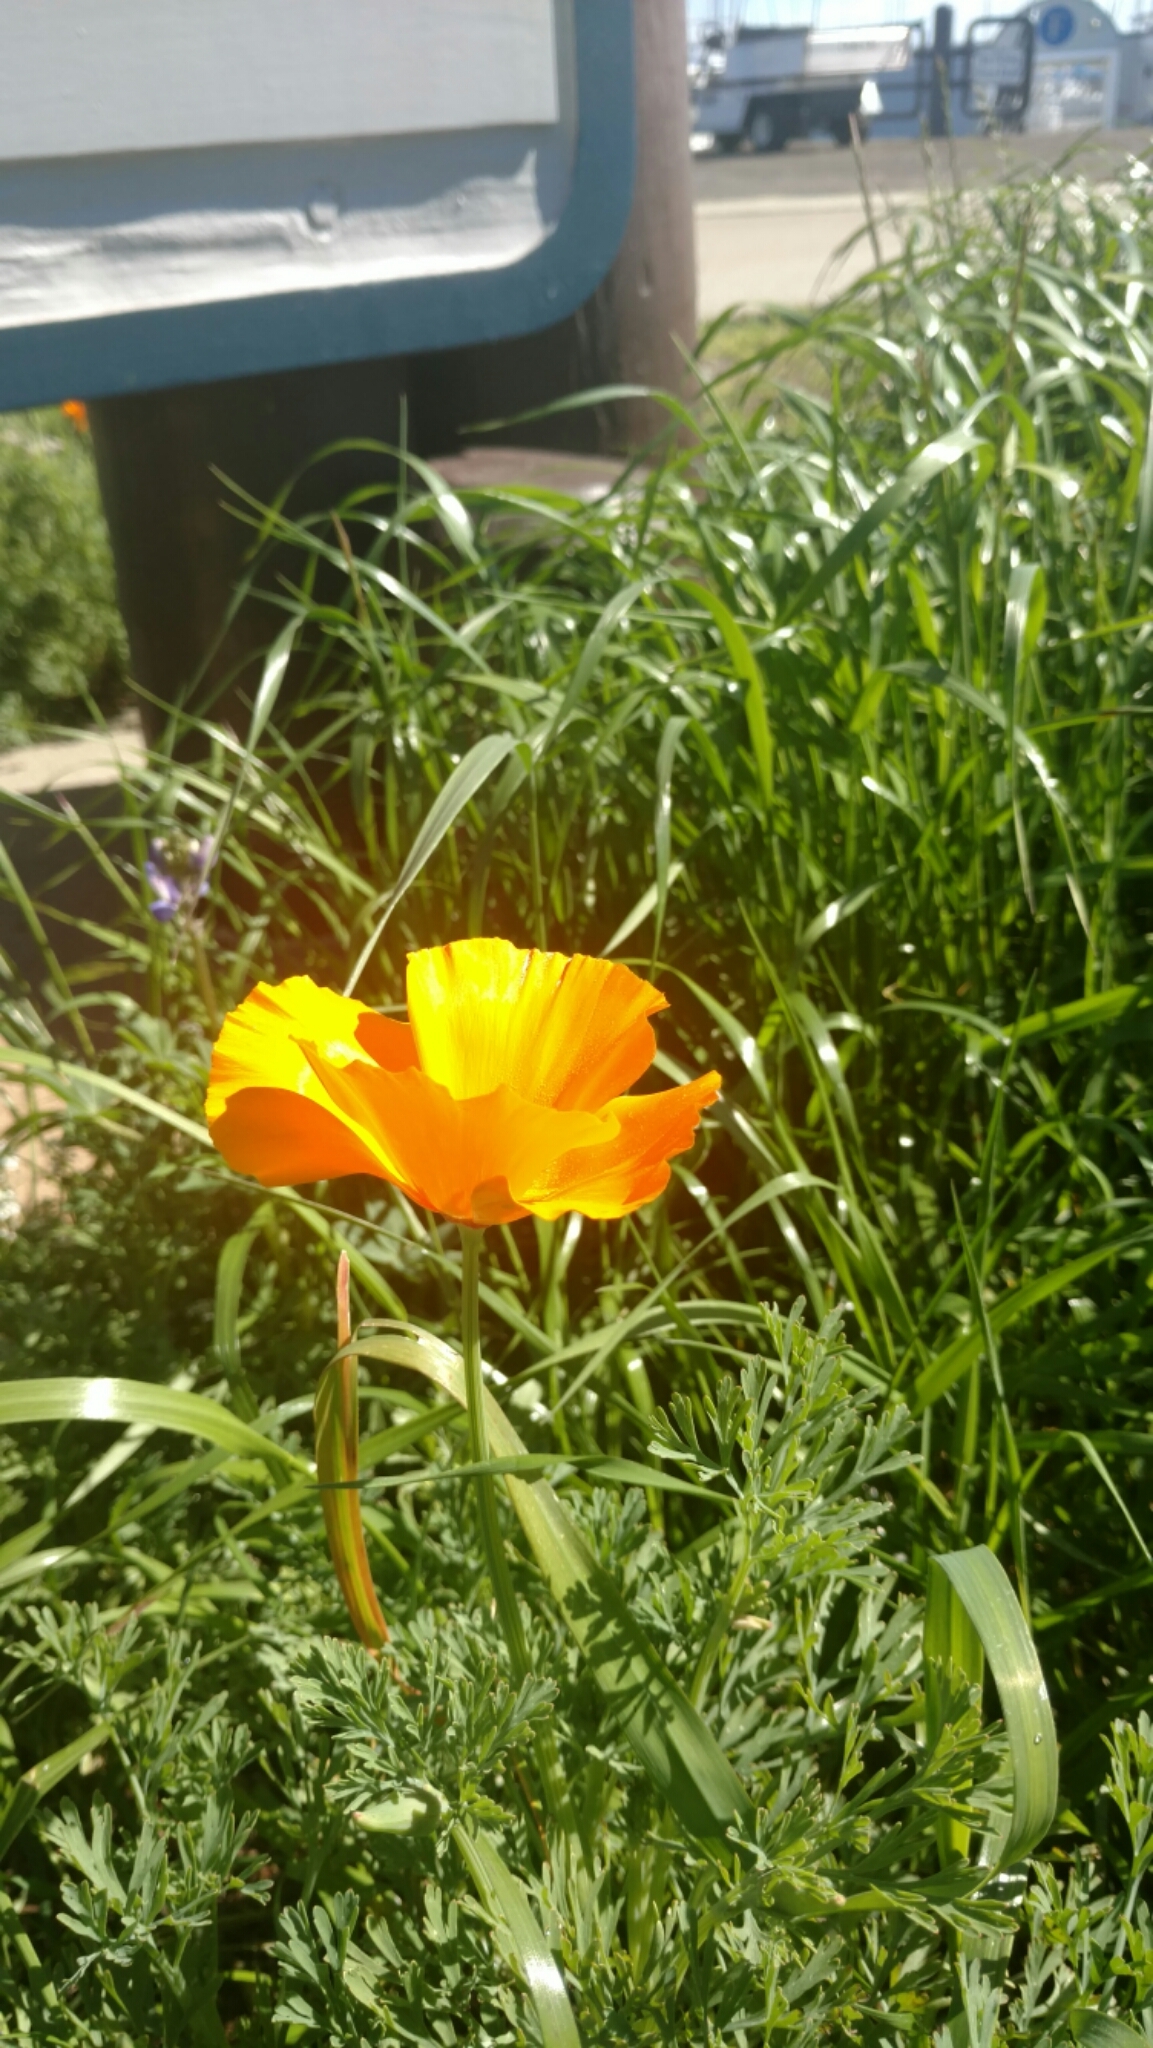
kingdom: Plantae
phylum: Tracheophyta
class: Magnoliopsida
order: Ranunculales
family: Papaveraceae
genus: Eschscholzia
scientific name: Eschscholzia californica
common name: California poppy
